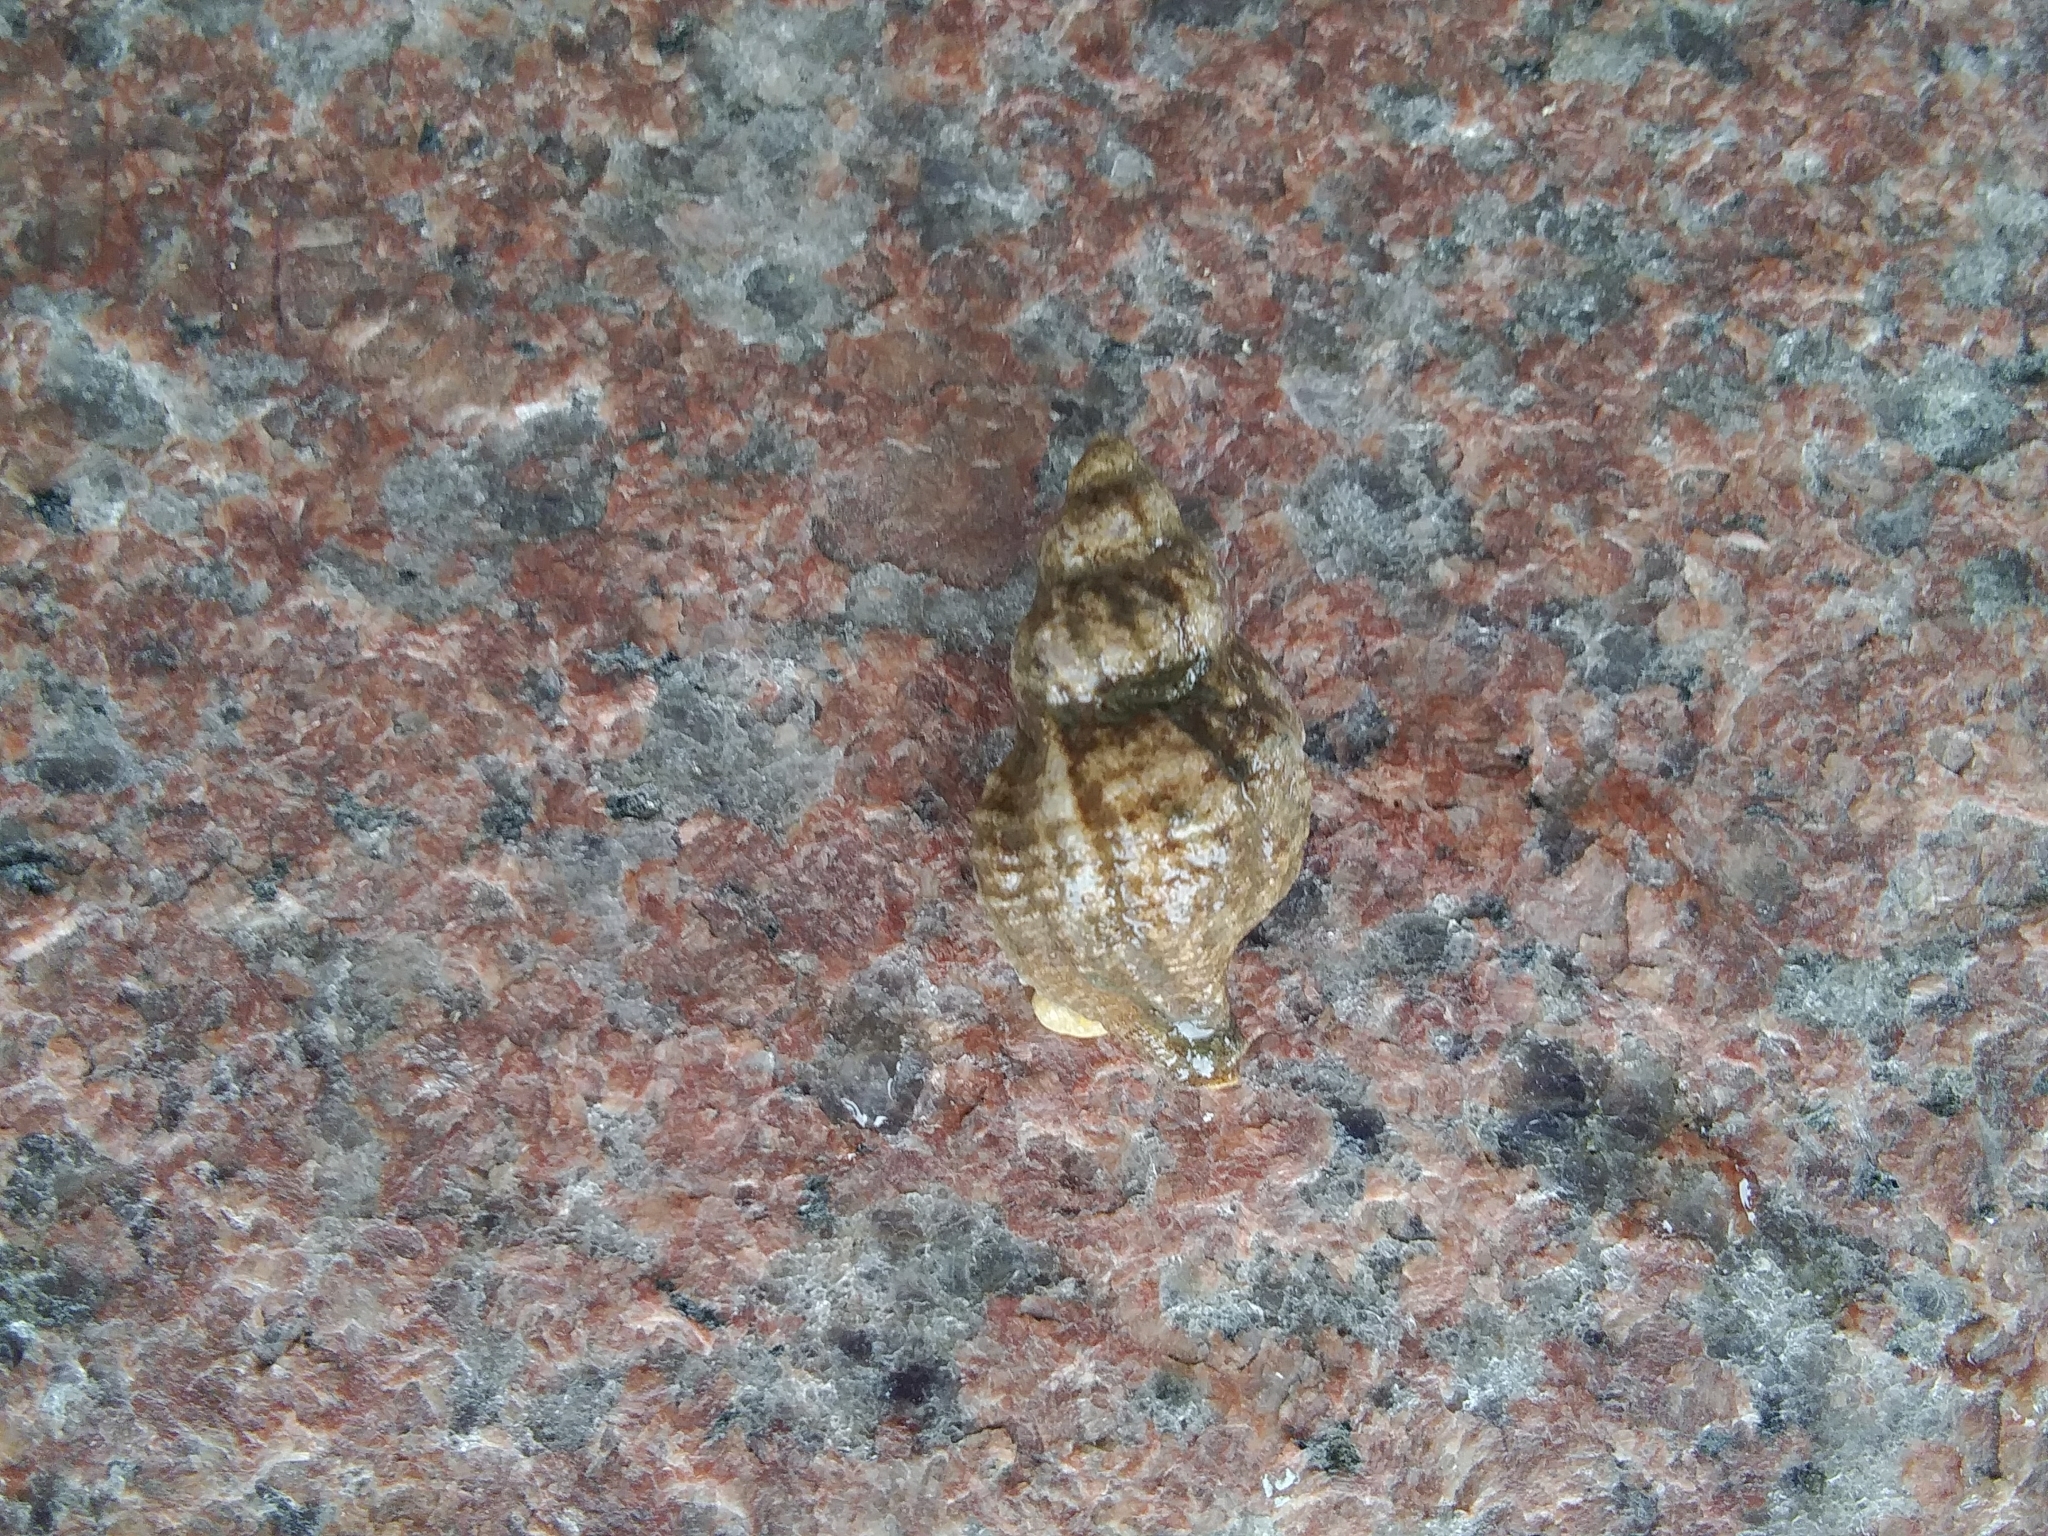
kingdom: Animalia
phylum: Mollusca
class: Gastropoda
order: Neogastropoda
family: Muricidae
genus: Urosalpinx
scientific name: Urosalpinx cinerea
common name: American sting winkle
